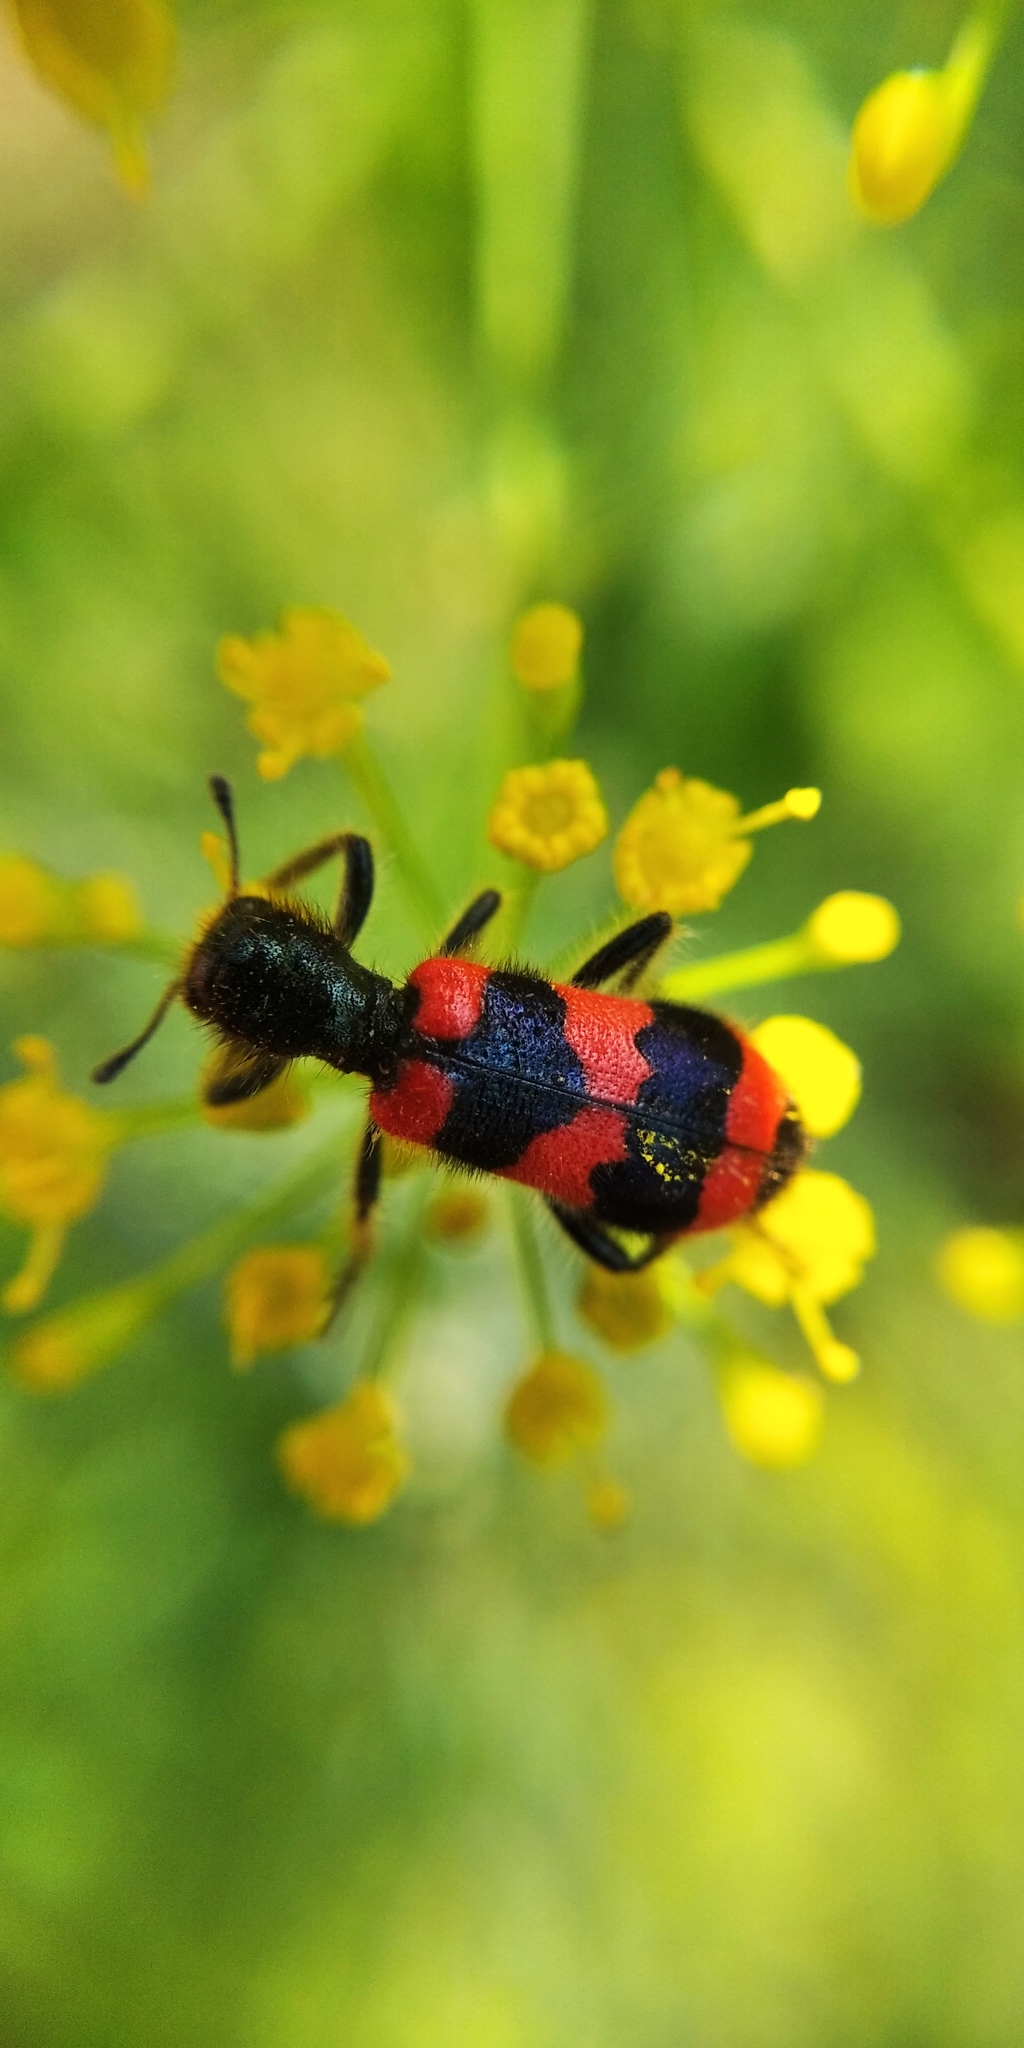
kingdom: Animalia
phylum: Arthropoda
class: Insecta
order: Coleoptera
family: Cleridae
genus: Trichodes
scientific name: Trichodes apiarius
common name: Bee-eating beetle
